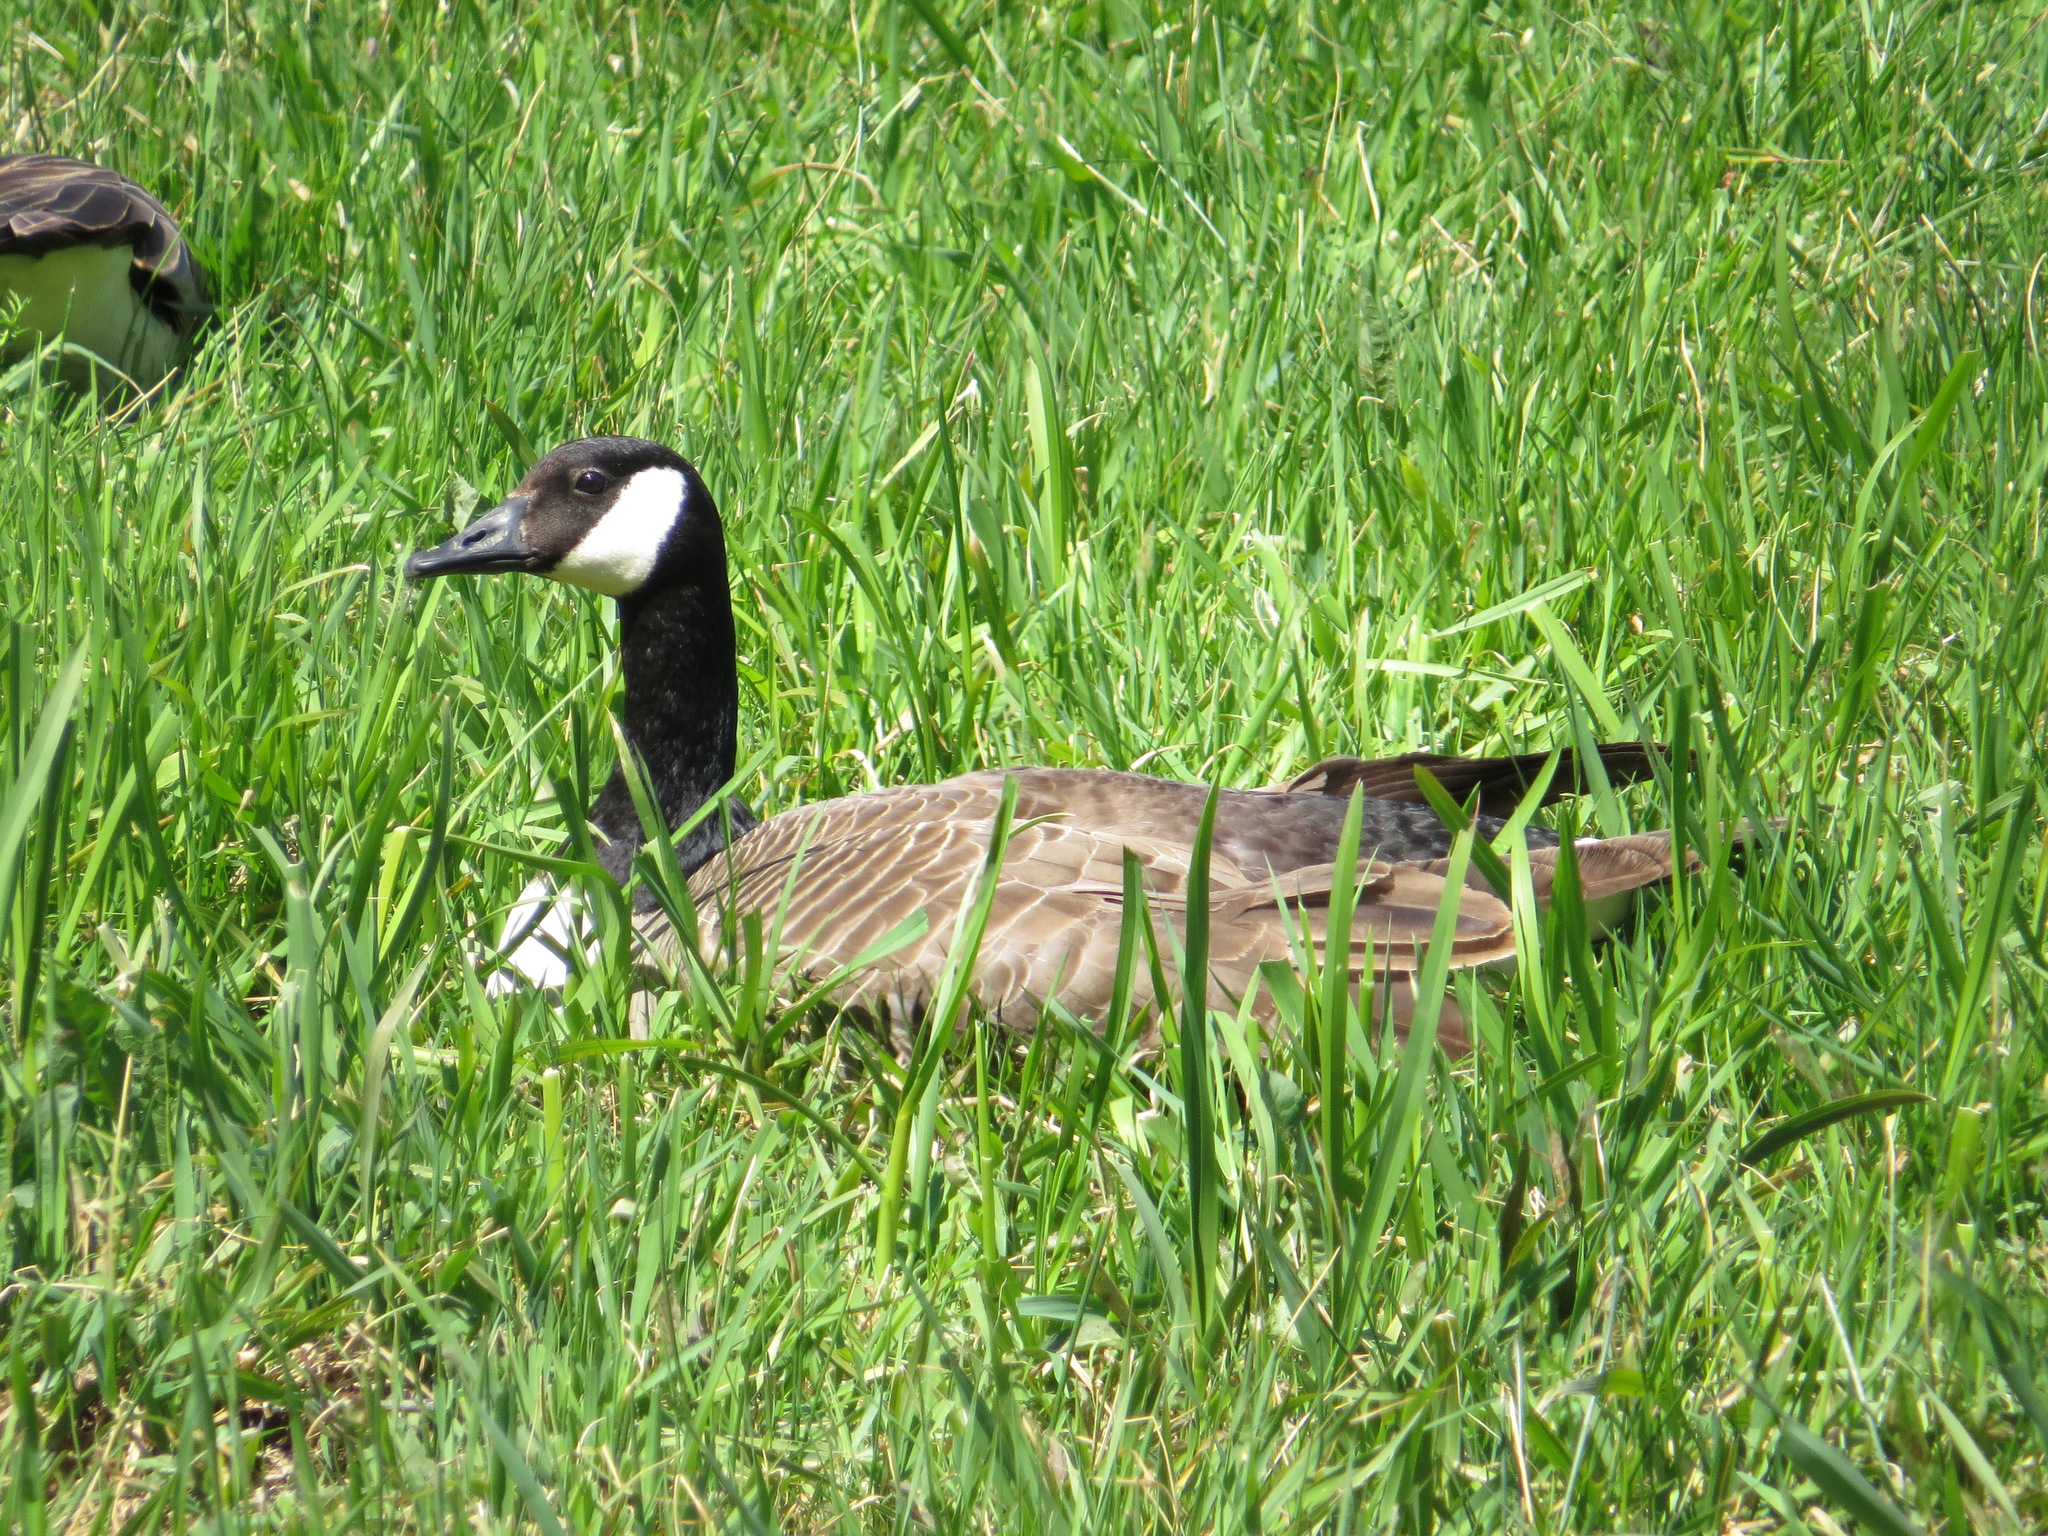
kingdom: Animalia
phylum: Chordata
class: Aves
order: Anseriformes
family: Anatidae
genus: Branta
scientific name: Branta canadensis
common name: Canada goose
